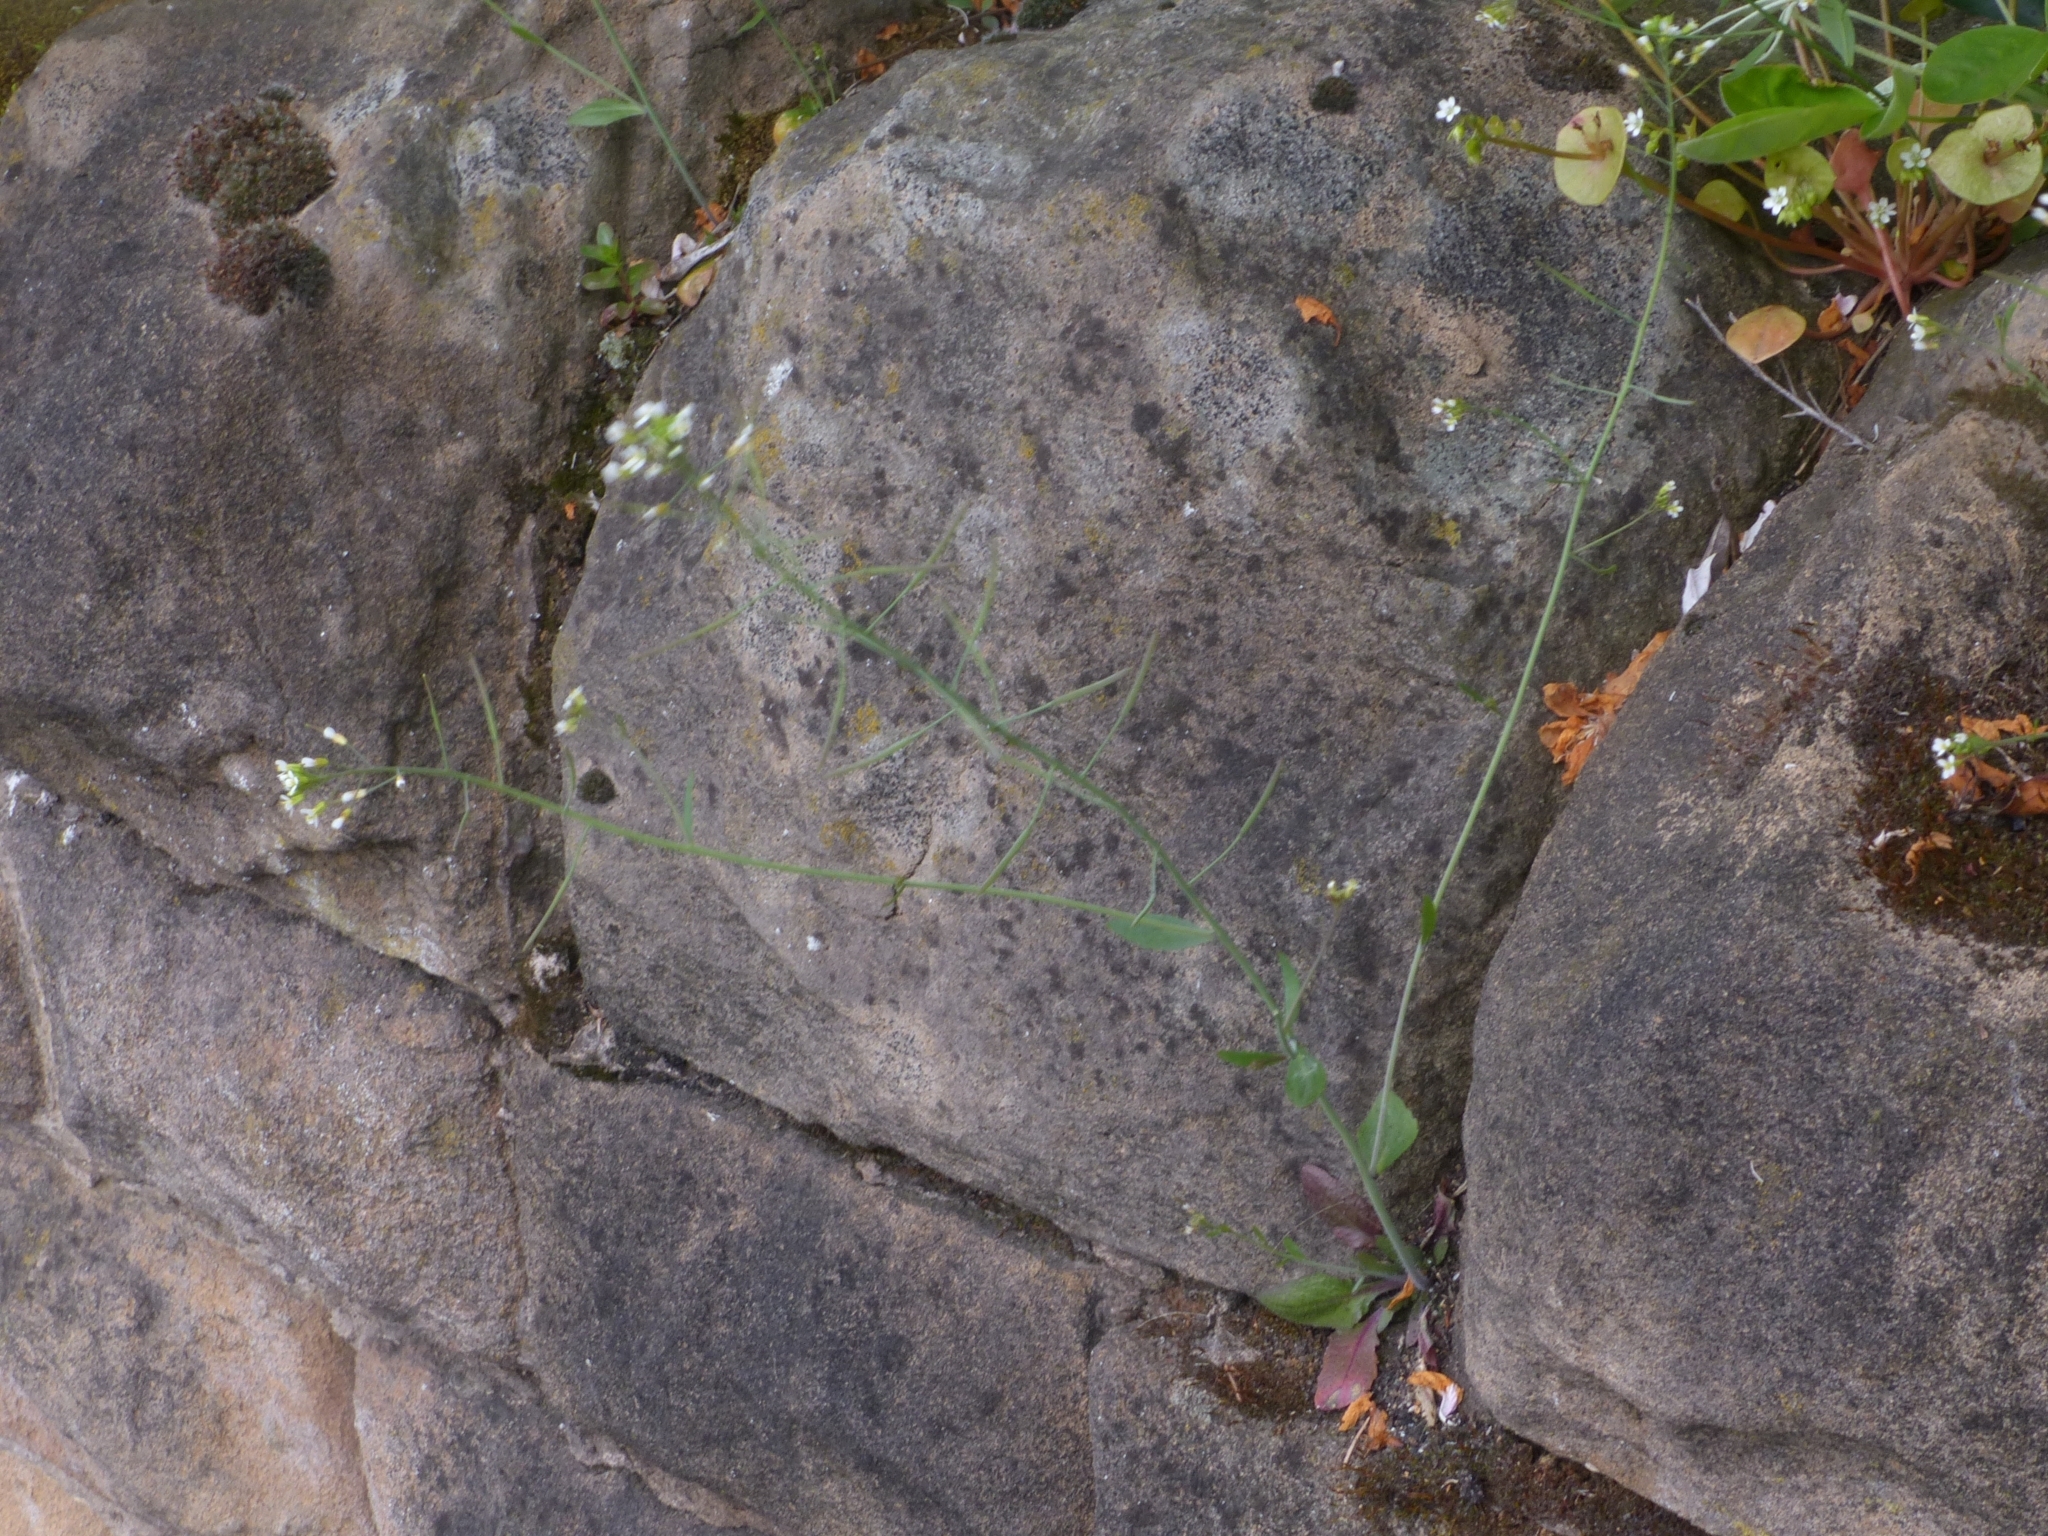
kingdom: Plantae
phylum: Tracheophyta
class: Magnoliopsida
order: Brassicales
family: Brassicaceae
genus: Arabidopsis
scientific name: Arabidopsis thaliana
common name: Thale cress
